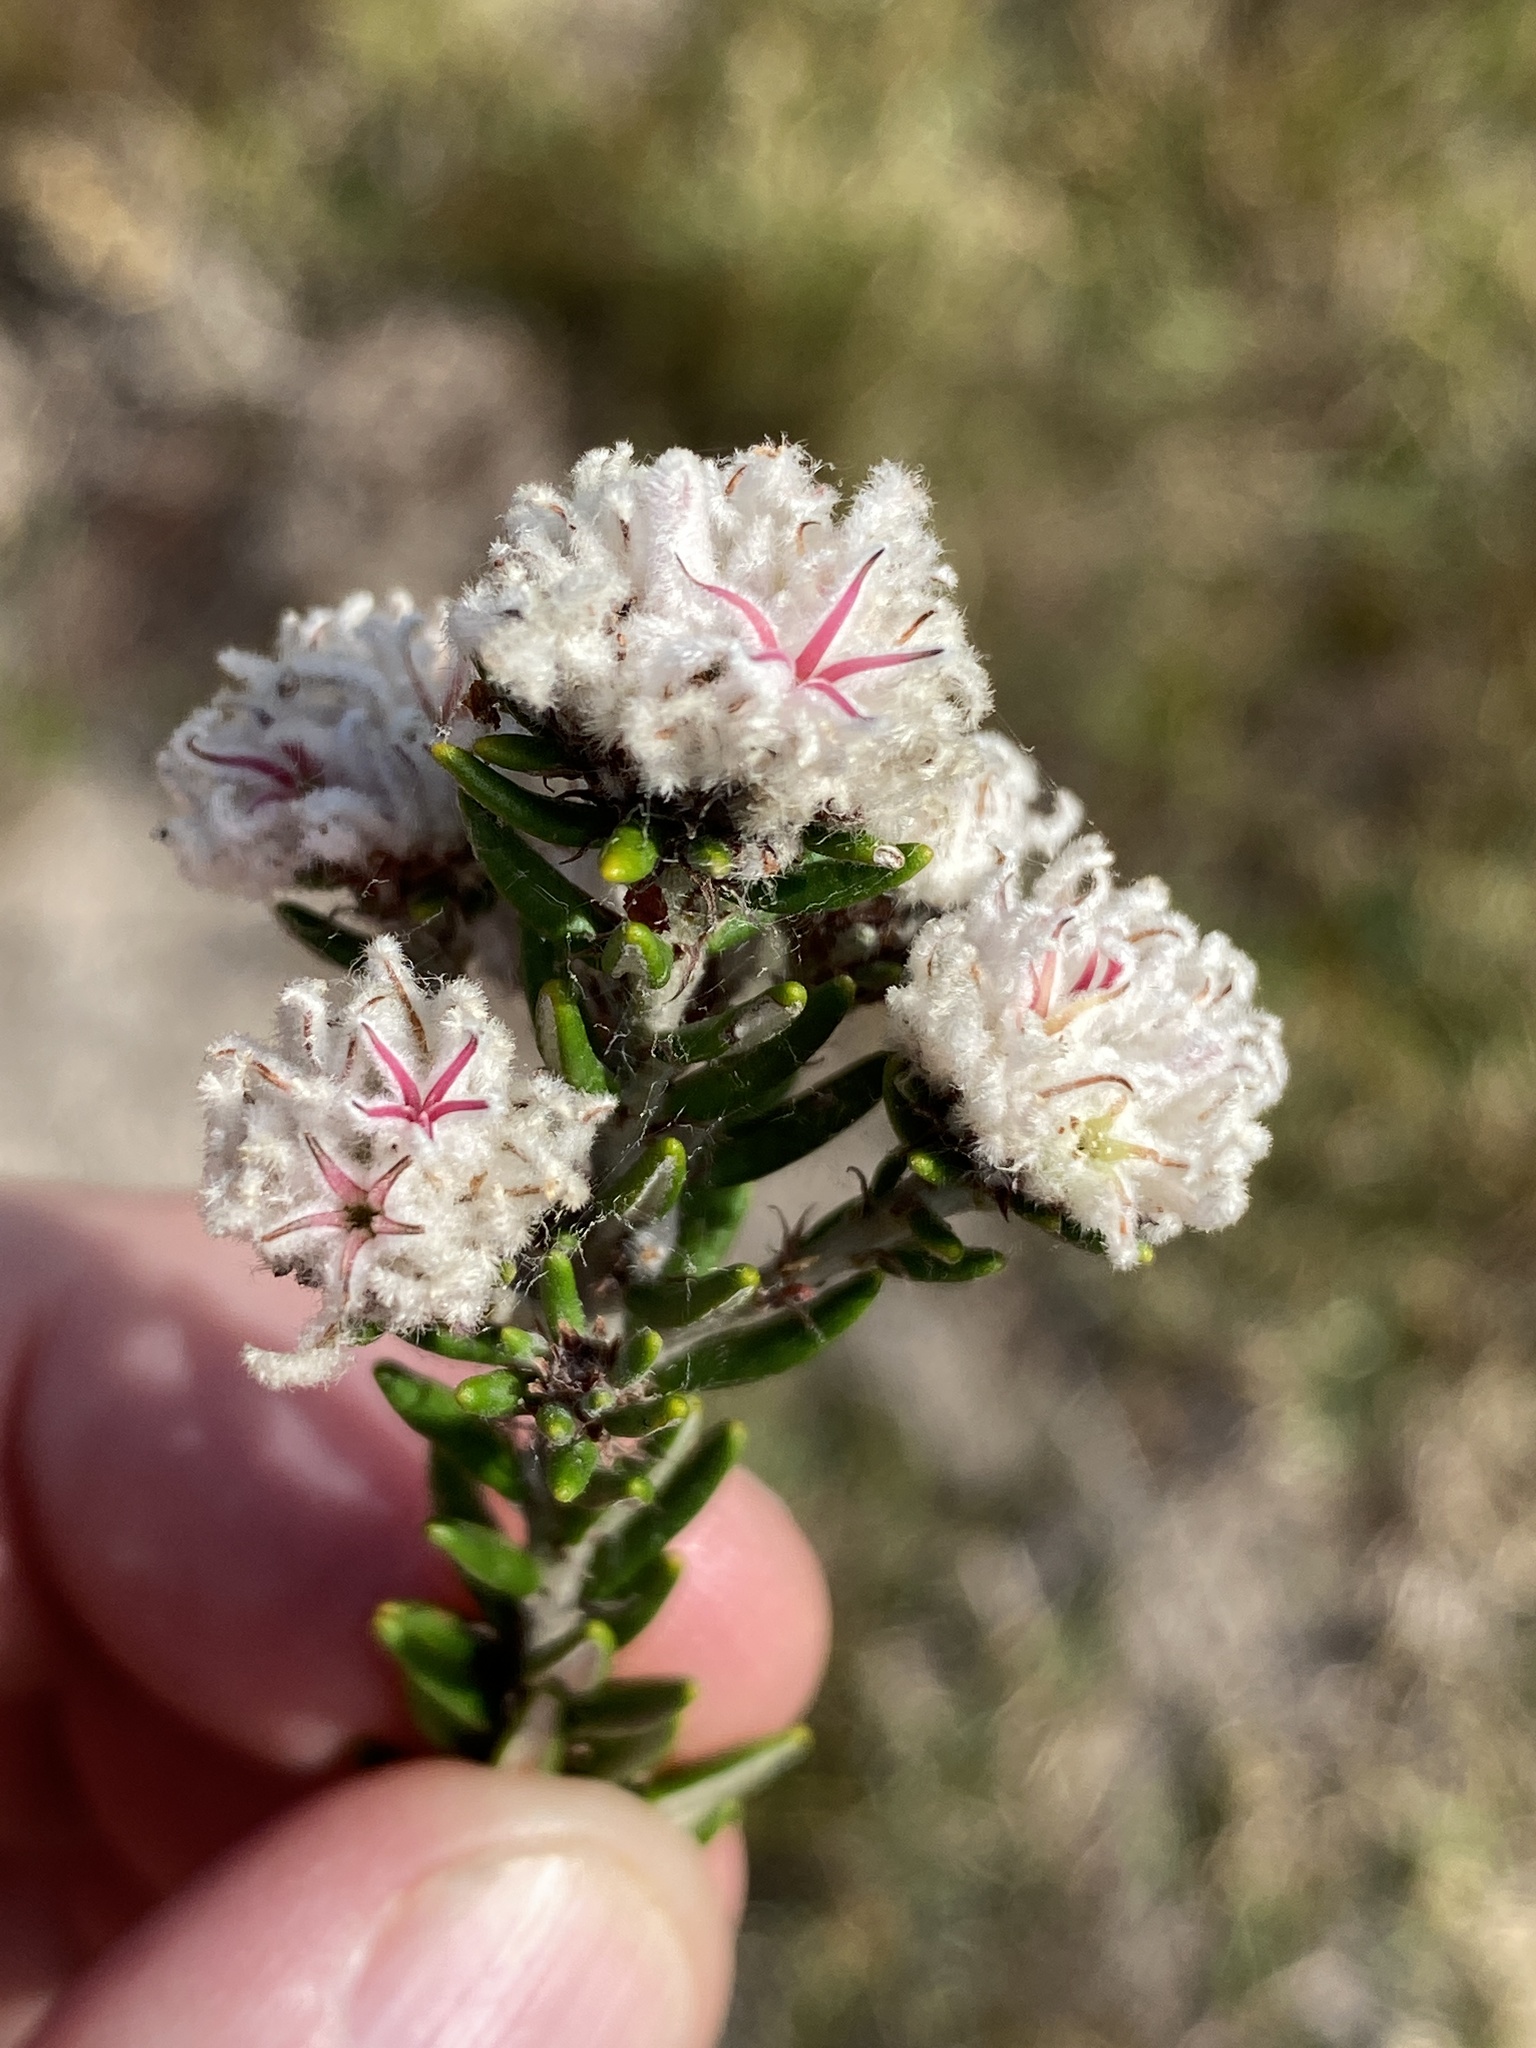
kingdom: Plantae
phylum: Tracheophyta
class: Magnoliopsida
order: Rosales
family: Rhamnaceae
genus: Trichocephalus
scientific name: Trichocephalus stipularis
